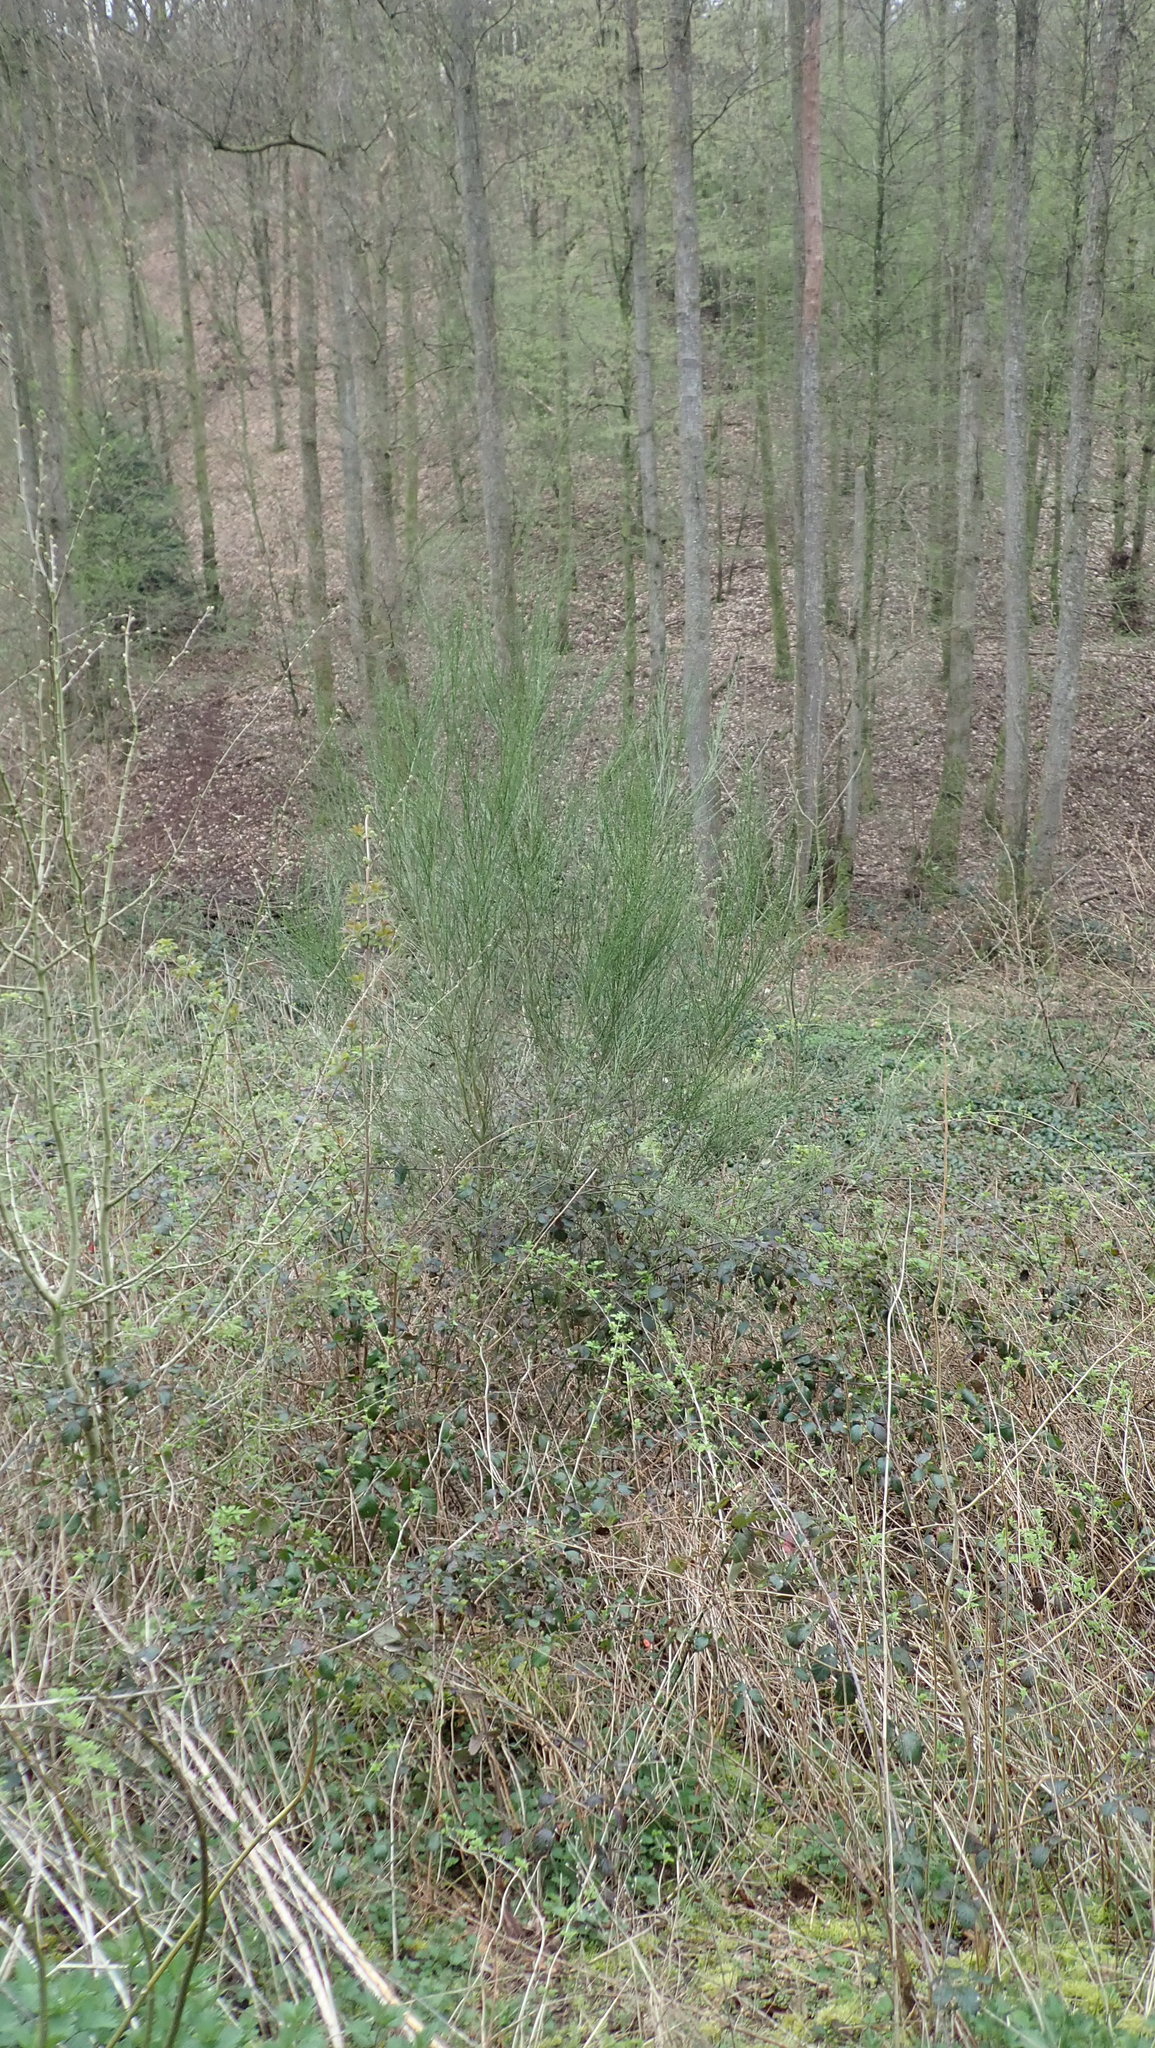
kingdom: Plantae
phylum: Tracheophyta
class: Magnoliopsida
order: Fabales
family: Fabaceae
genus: Cytisus
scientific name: Cytisus scoparius
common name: Scotch broom
